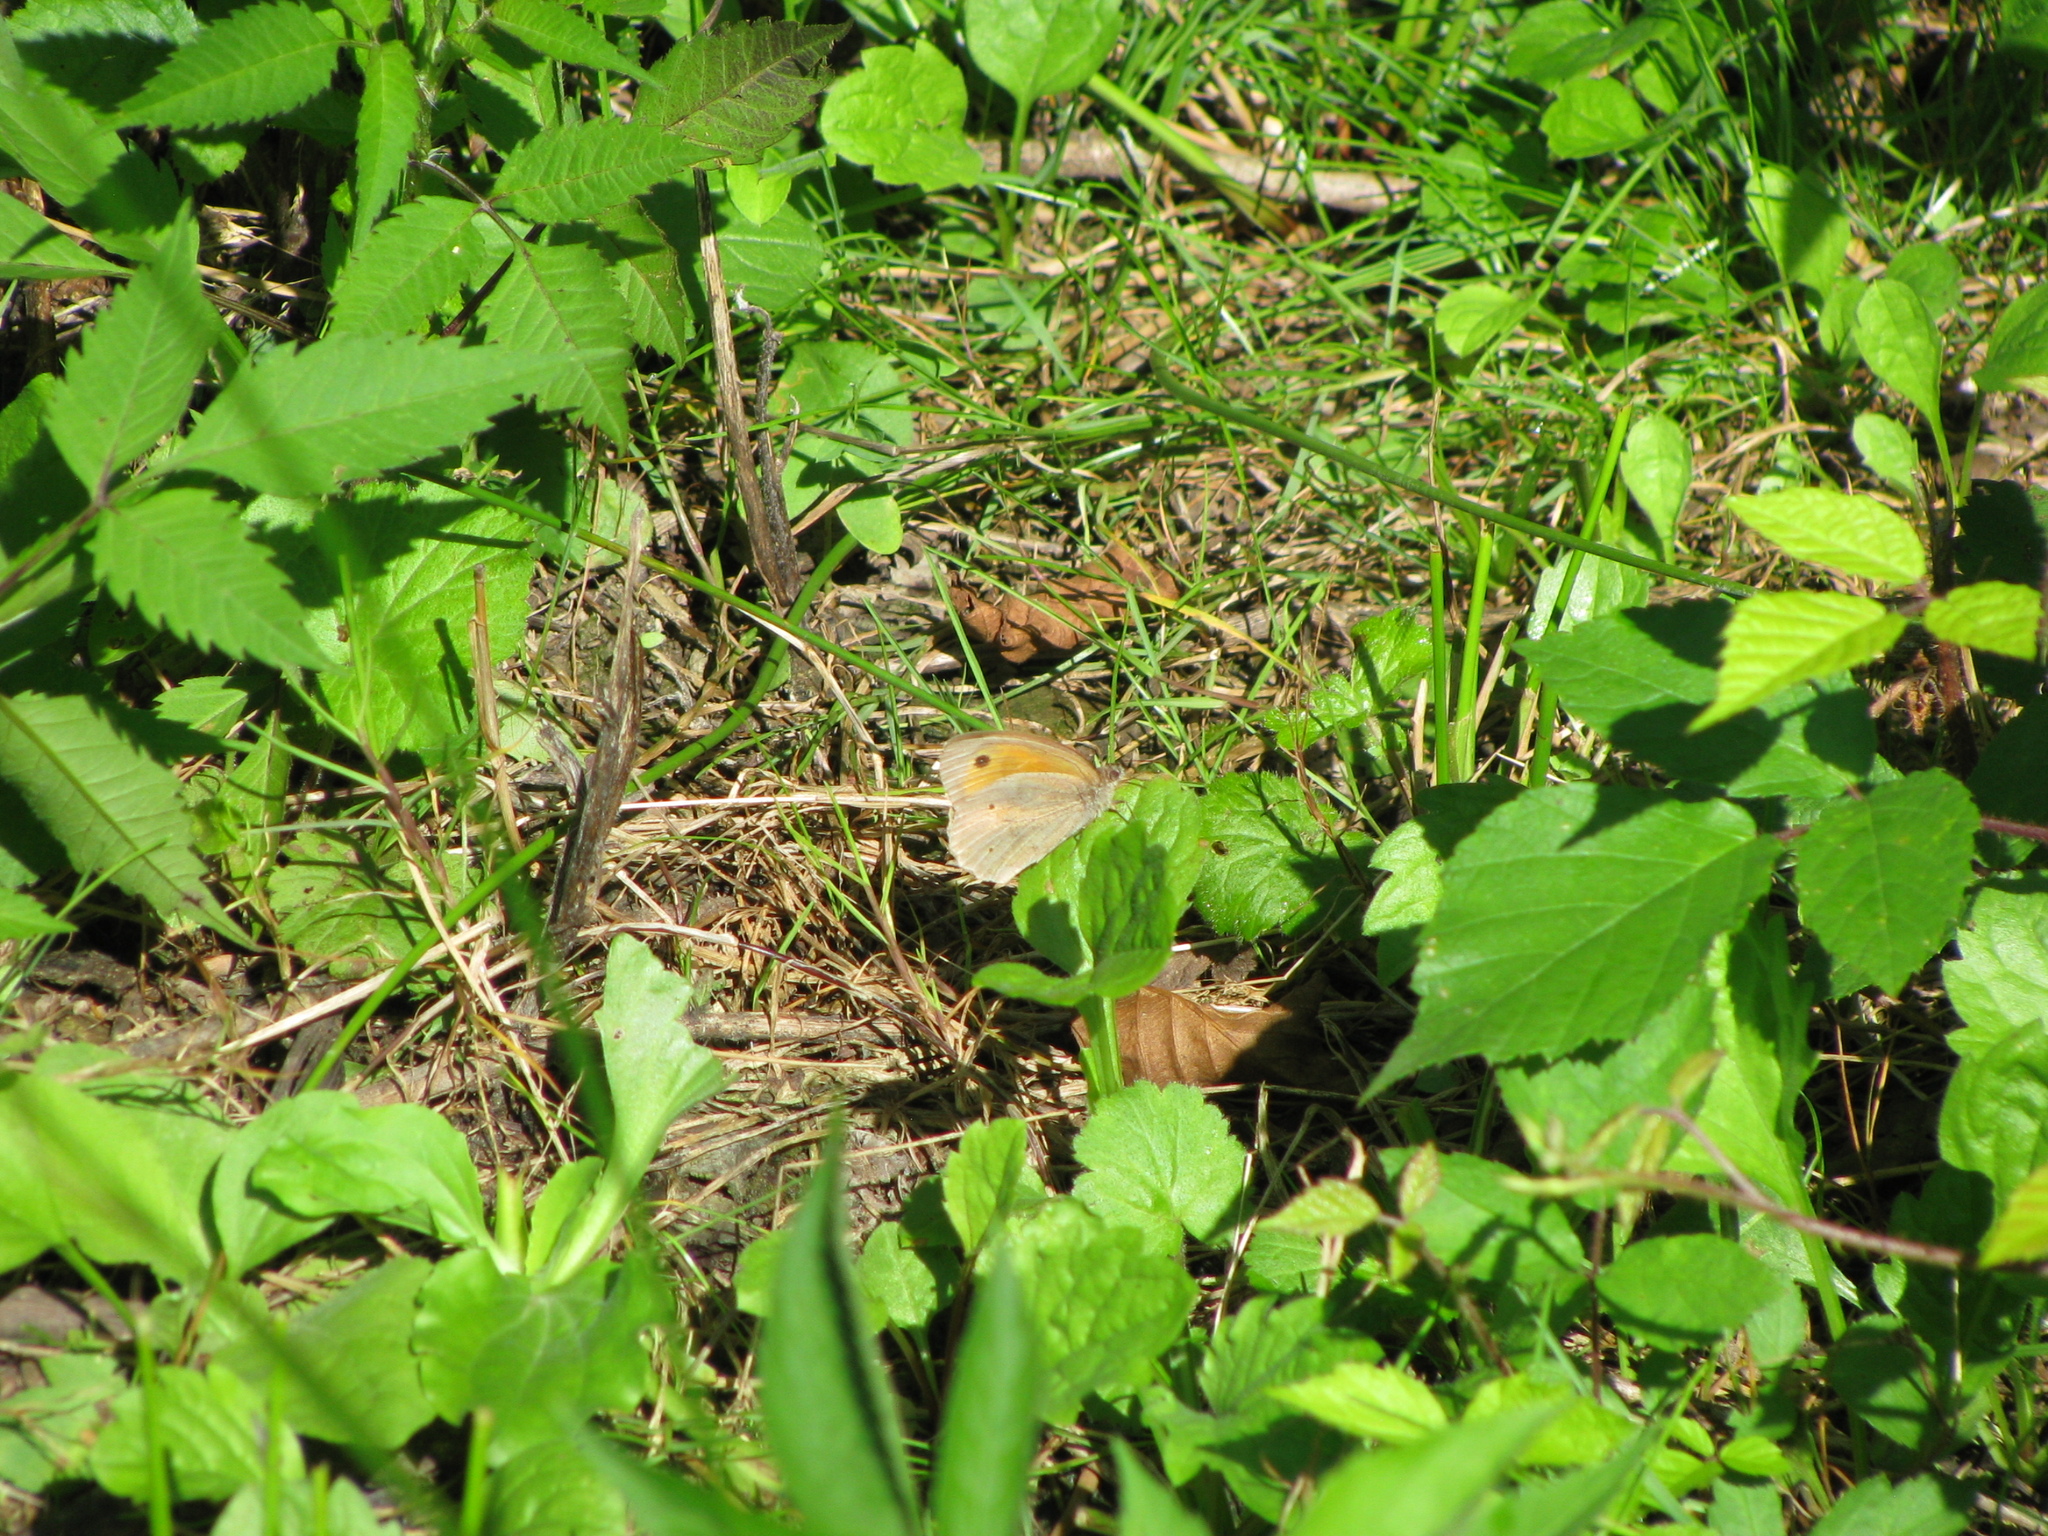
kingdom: Animalia
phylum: Arthropoda
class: Insecta
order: Lepidoptera
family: Nymphalidae
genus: Maniola
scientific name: Maniola jurtina
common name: Meadow brown
